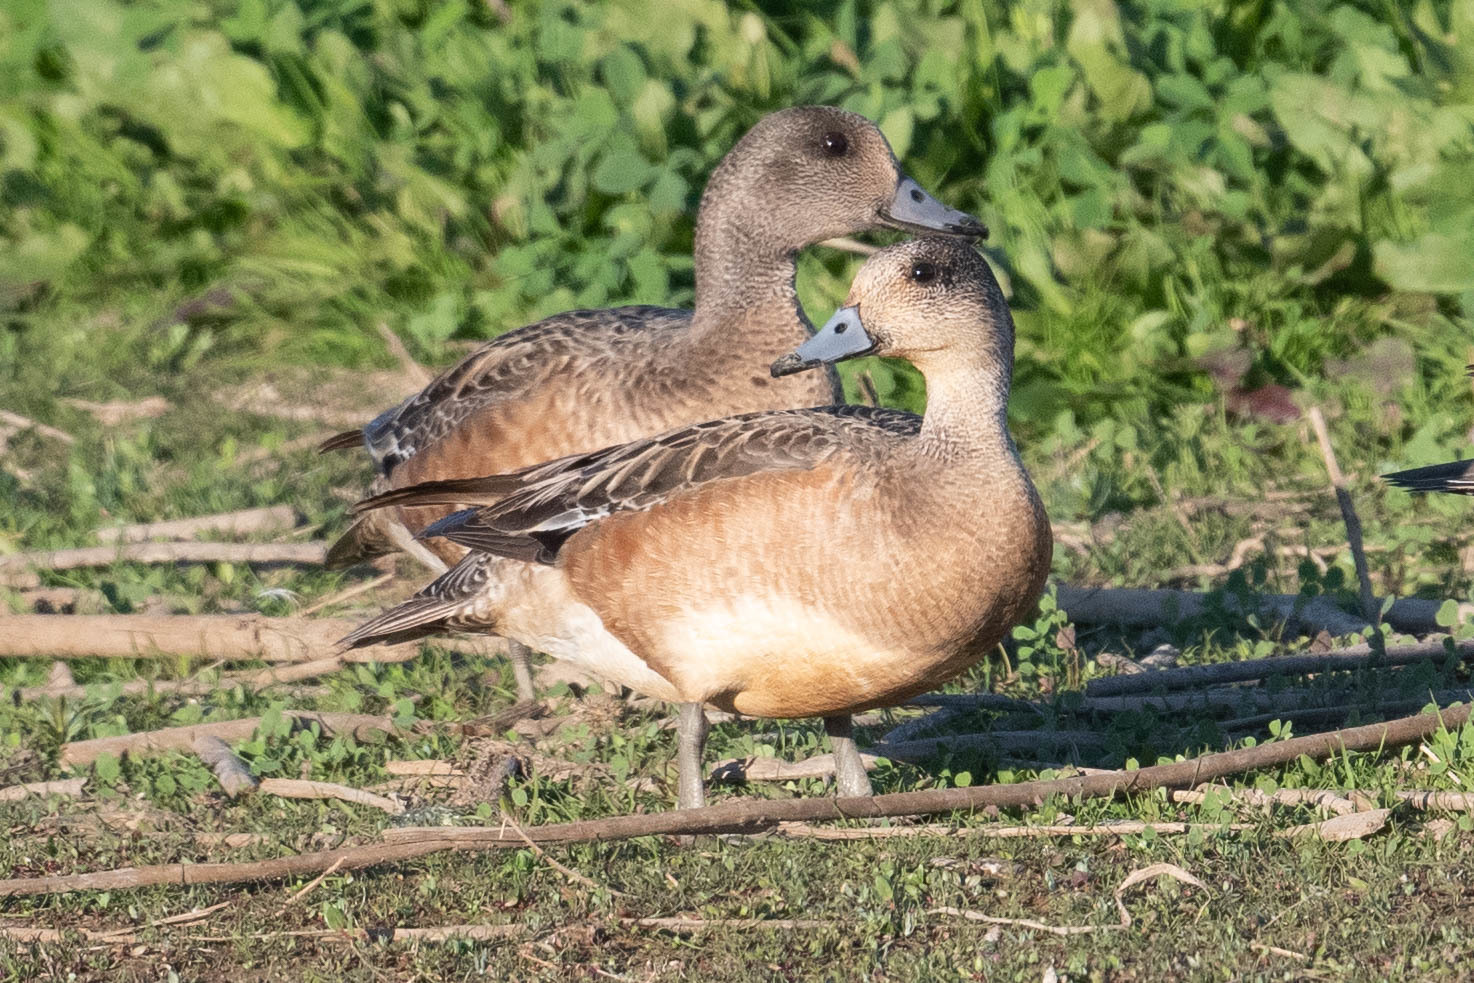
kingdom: Animalia
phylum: Chordata
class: Aves
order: Anseriformes
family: Anatidae
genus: Mareca
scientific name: Mareca americana
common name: American wigeon
